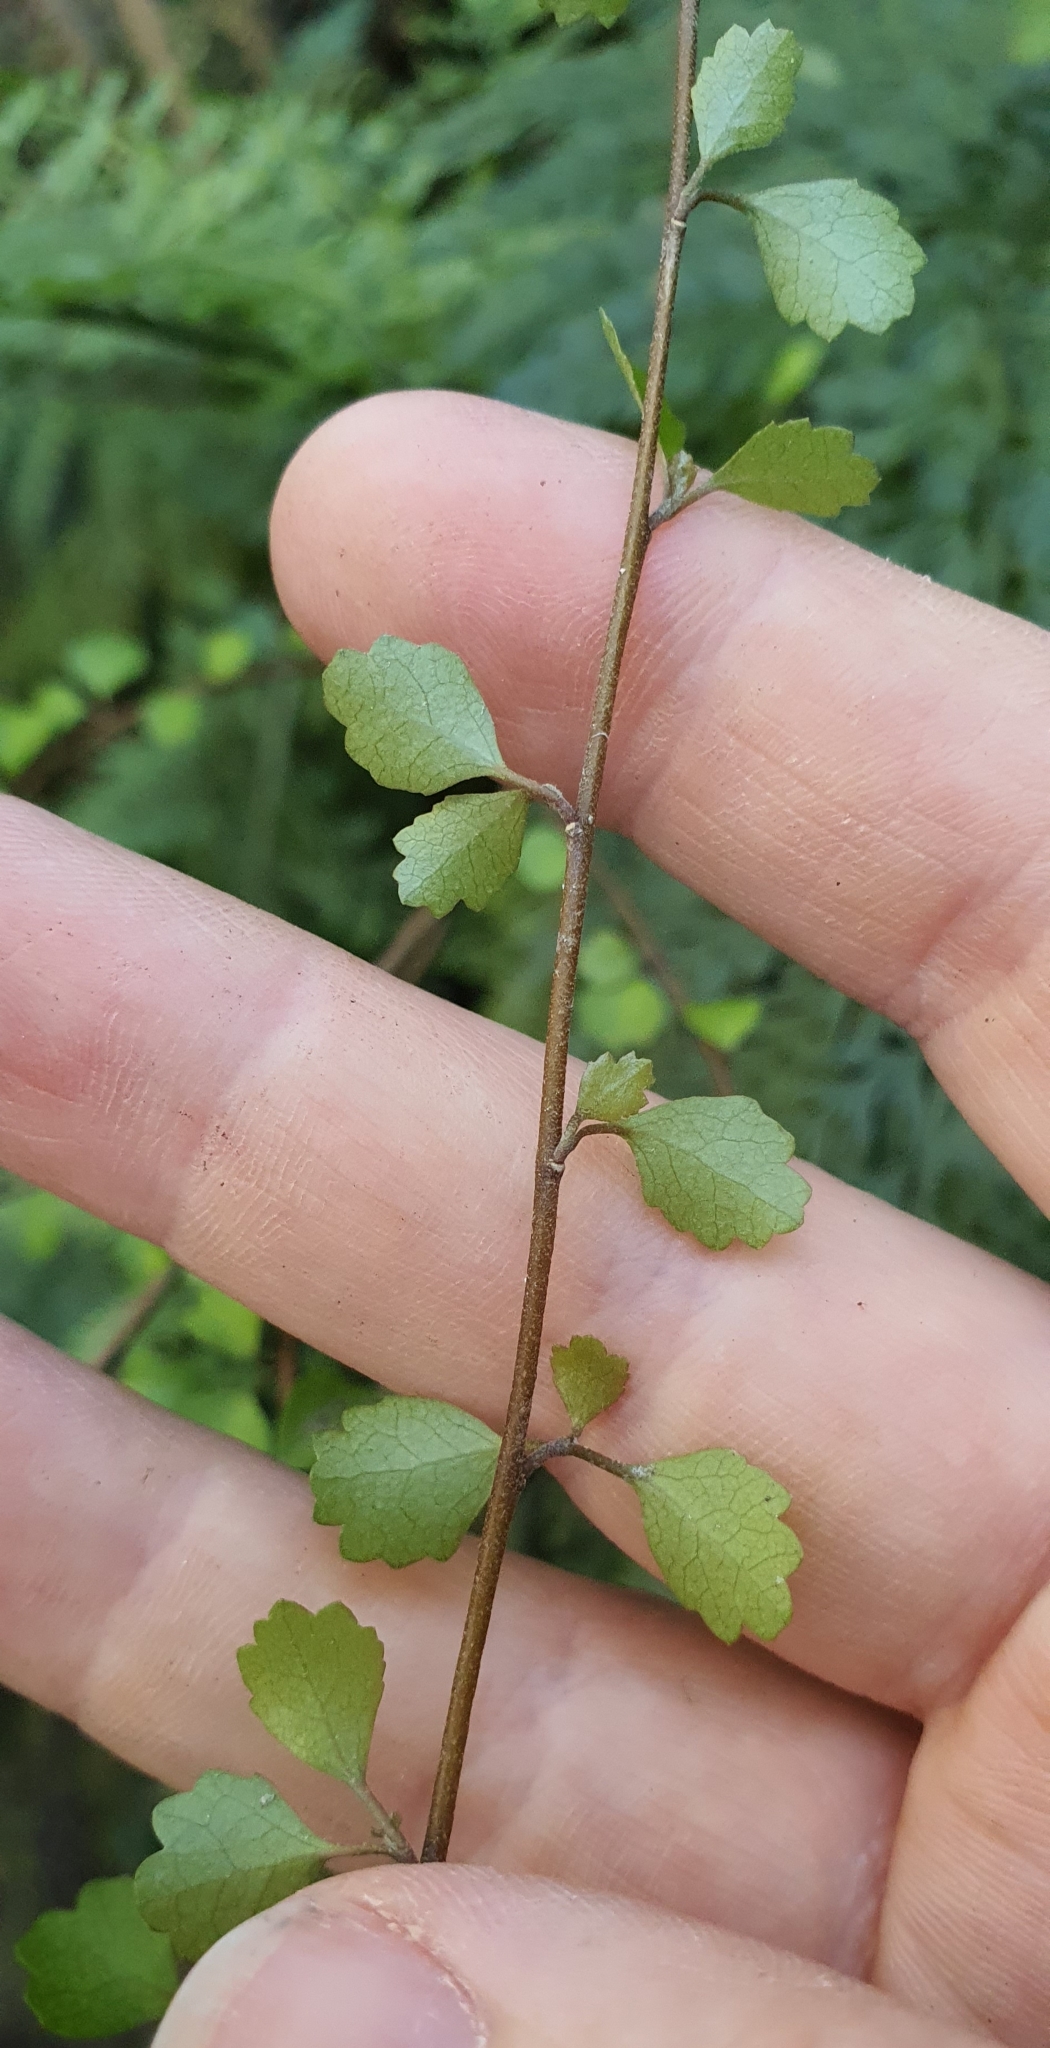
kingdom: Plantae
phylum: Tracheophyta
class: Magnoliopsida
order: Malvales
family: Malvaceae
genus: Hoheria
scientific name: Hoheria angustifolia
